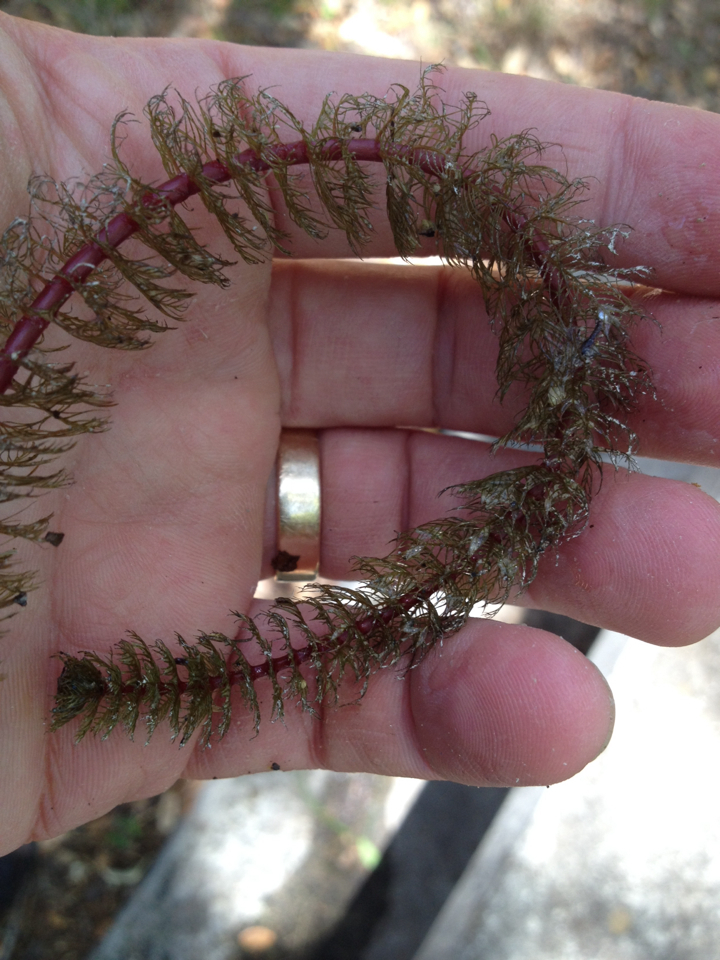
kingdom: Plantae
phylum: Tracheophyta
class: Magnoliopsida
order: Saxifragales
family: Haloragaceae
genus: Myriophyllum
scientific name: Myriophyllum heterophyllum
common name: Variable watermilfoil
